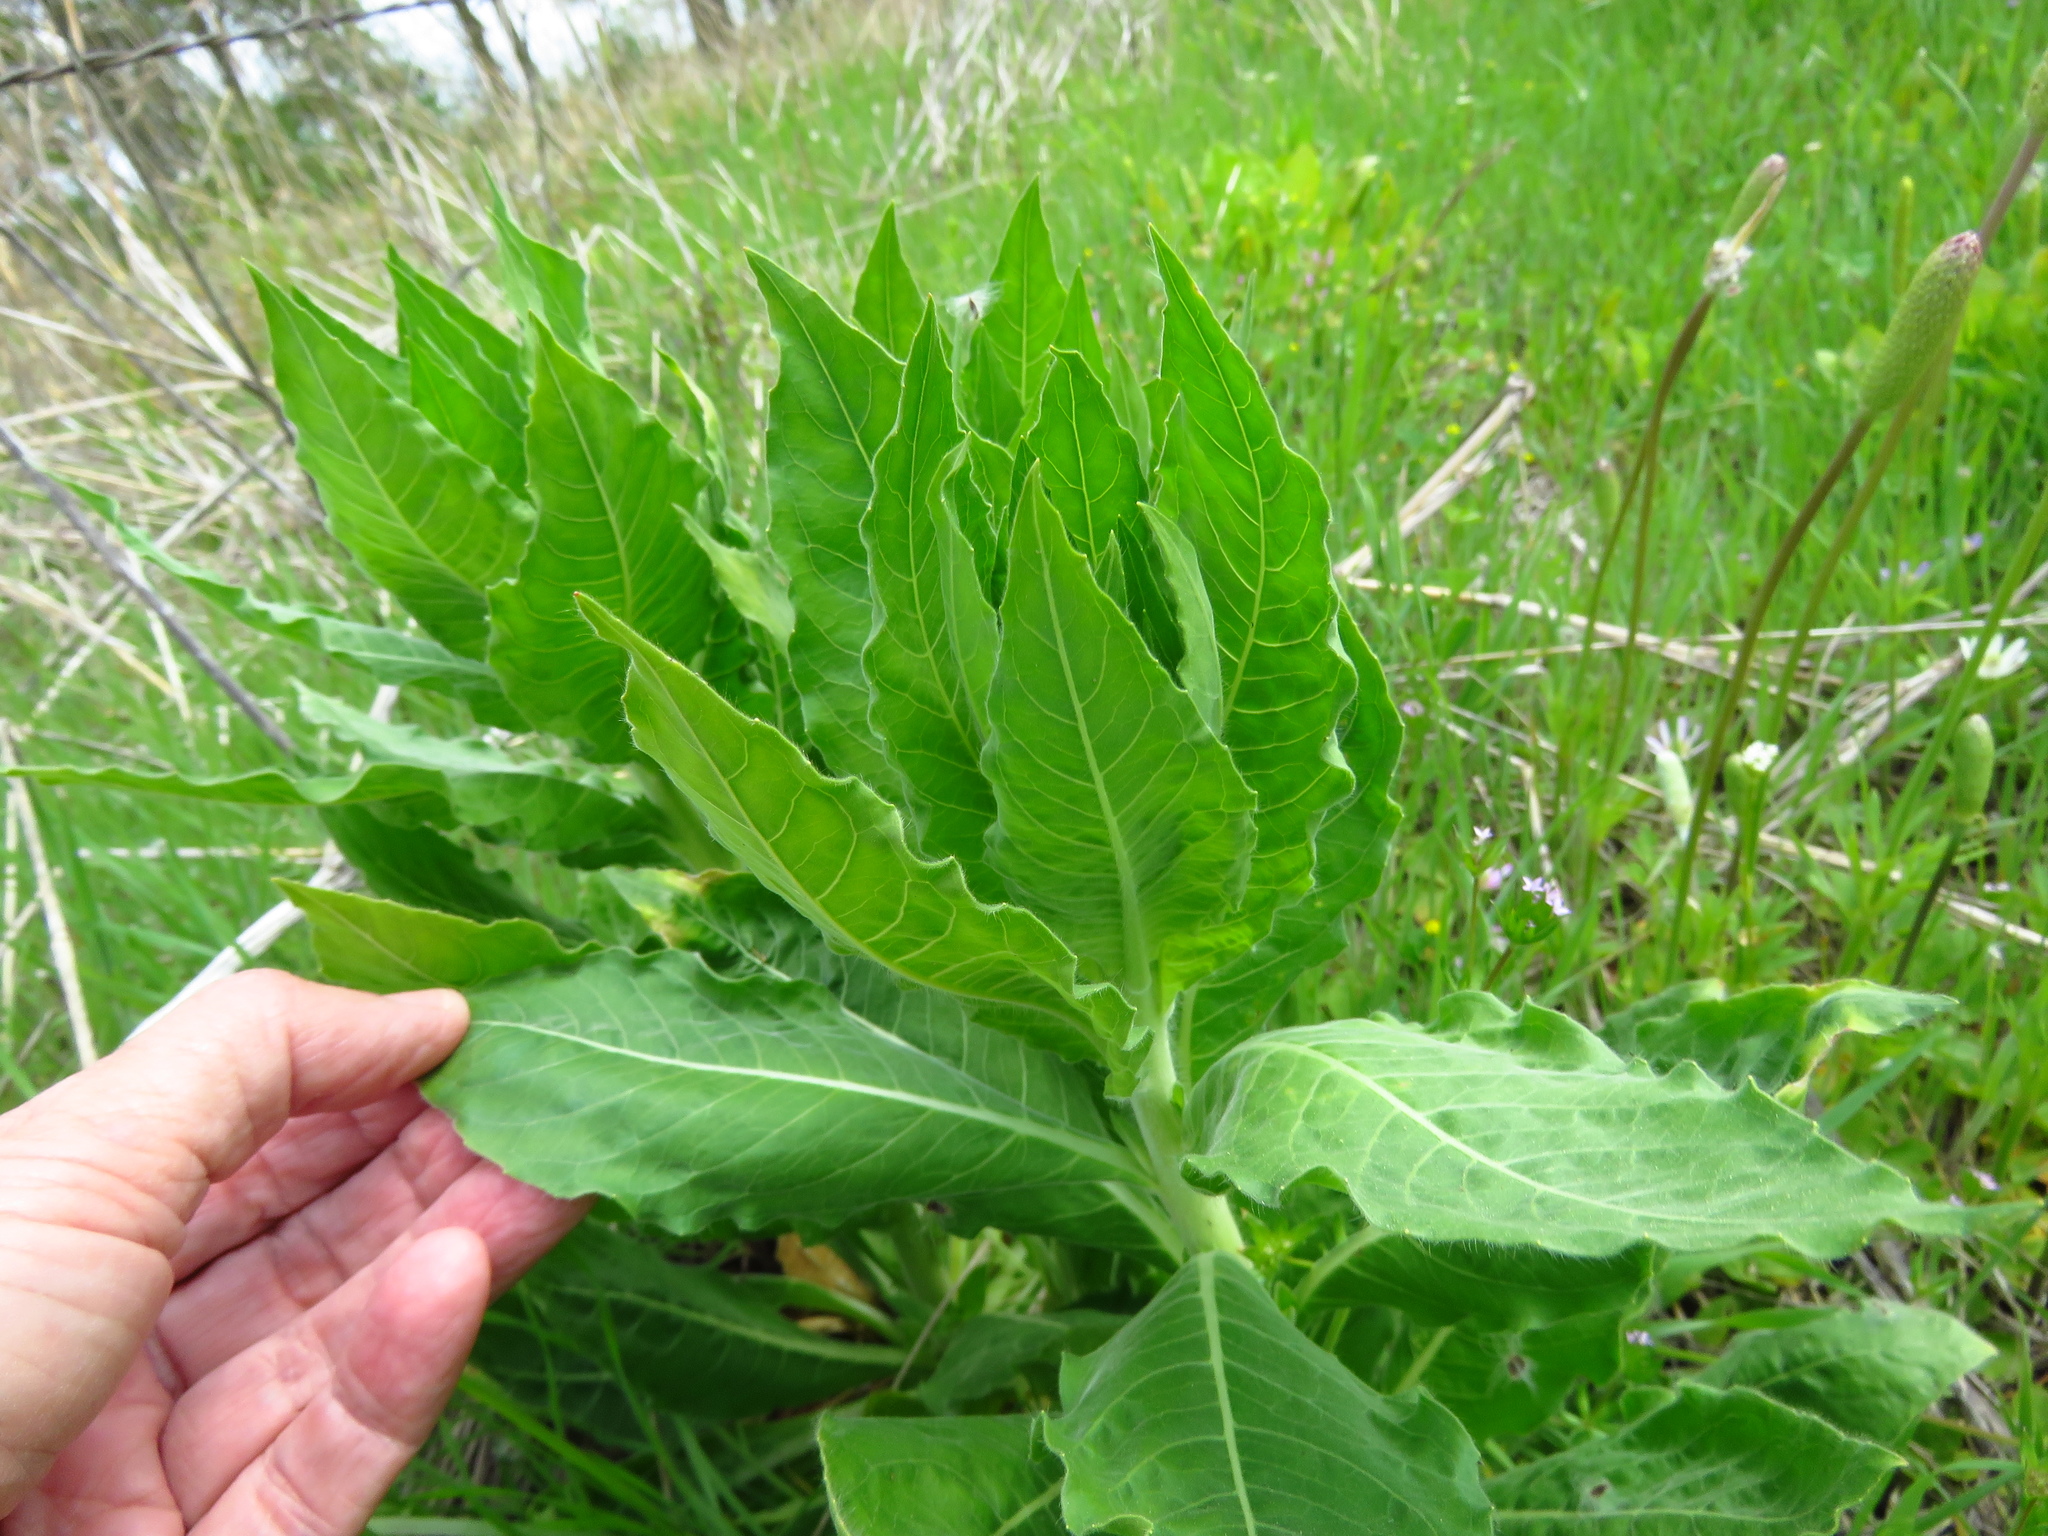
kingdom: Plantae
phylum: Tracheophyta
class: Magnoliopsida
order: Myrtales
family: Onagraceae
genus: Oenothera
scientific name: Oenothera curtiflora
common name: Velvetweed
